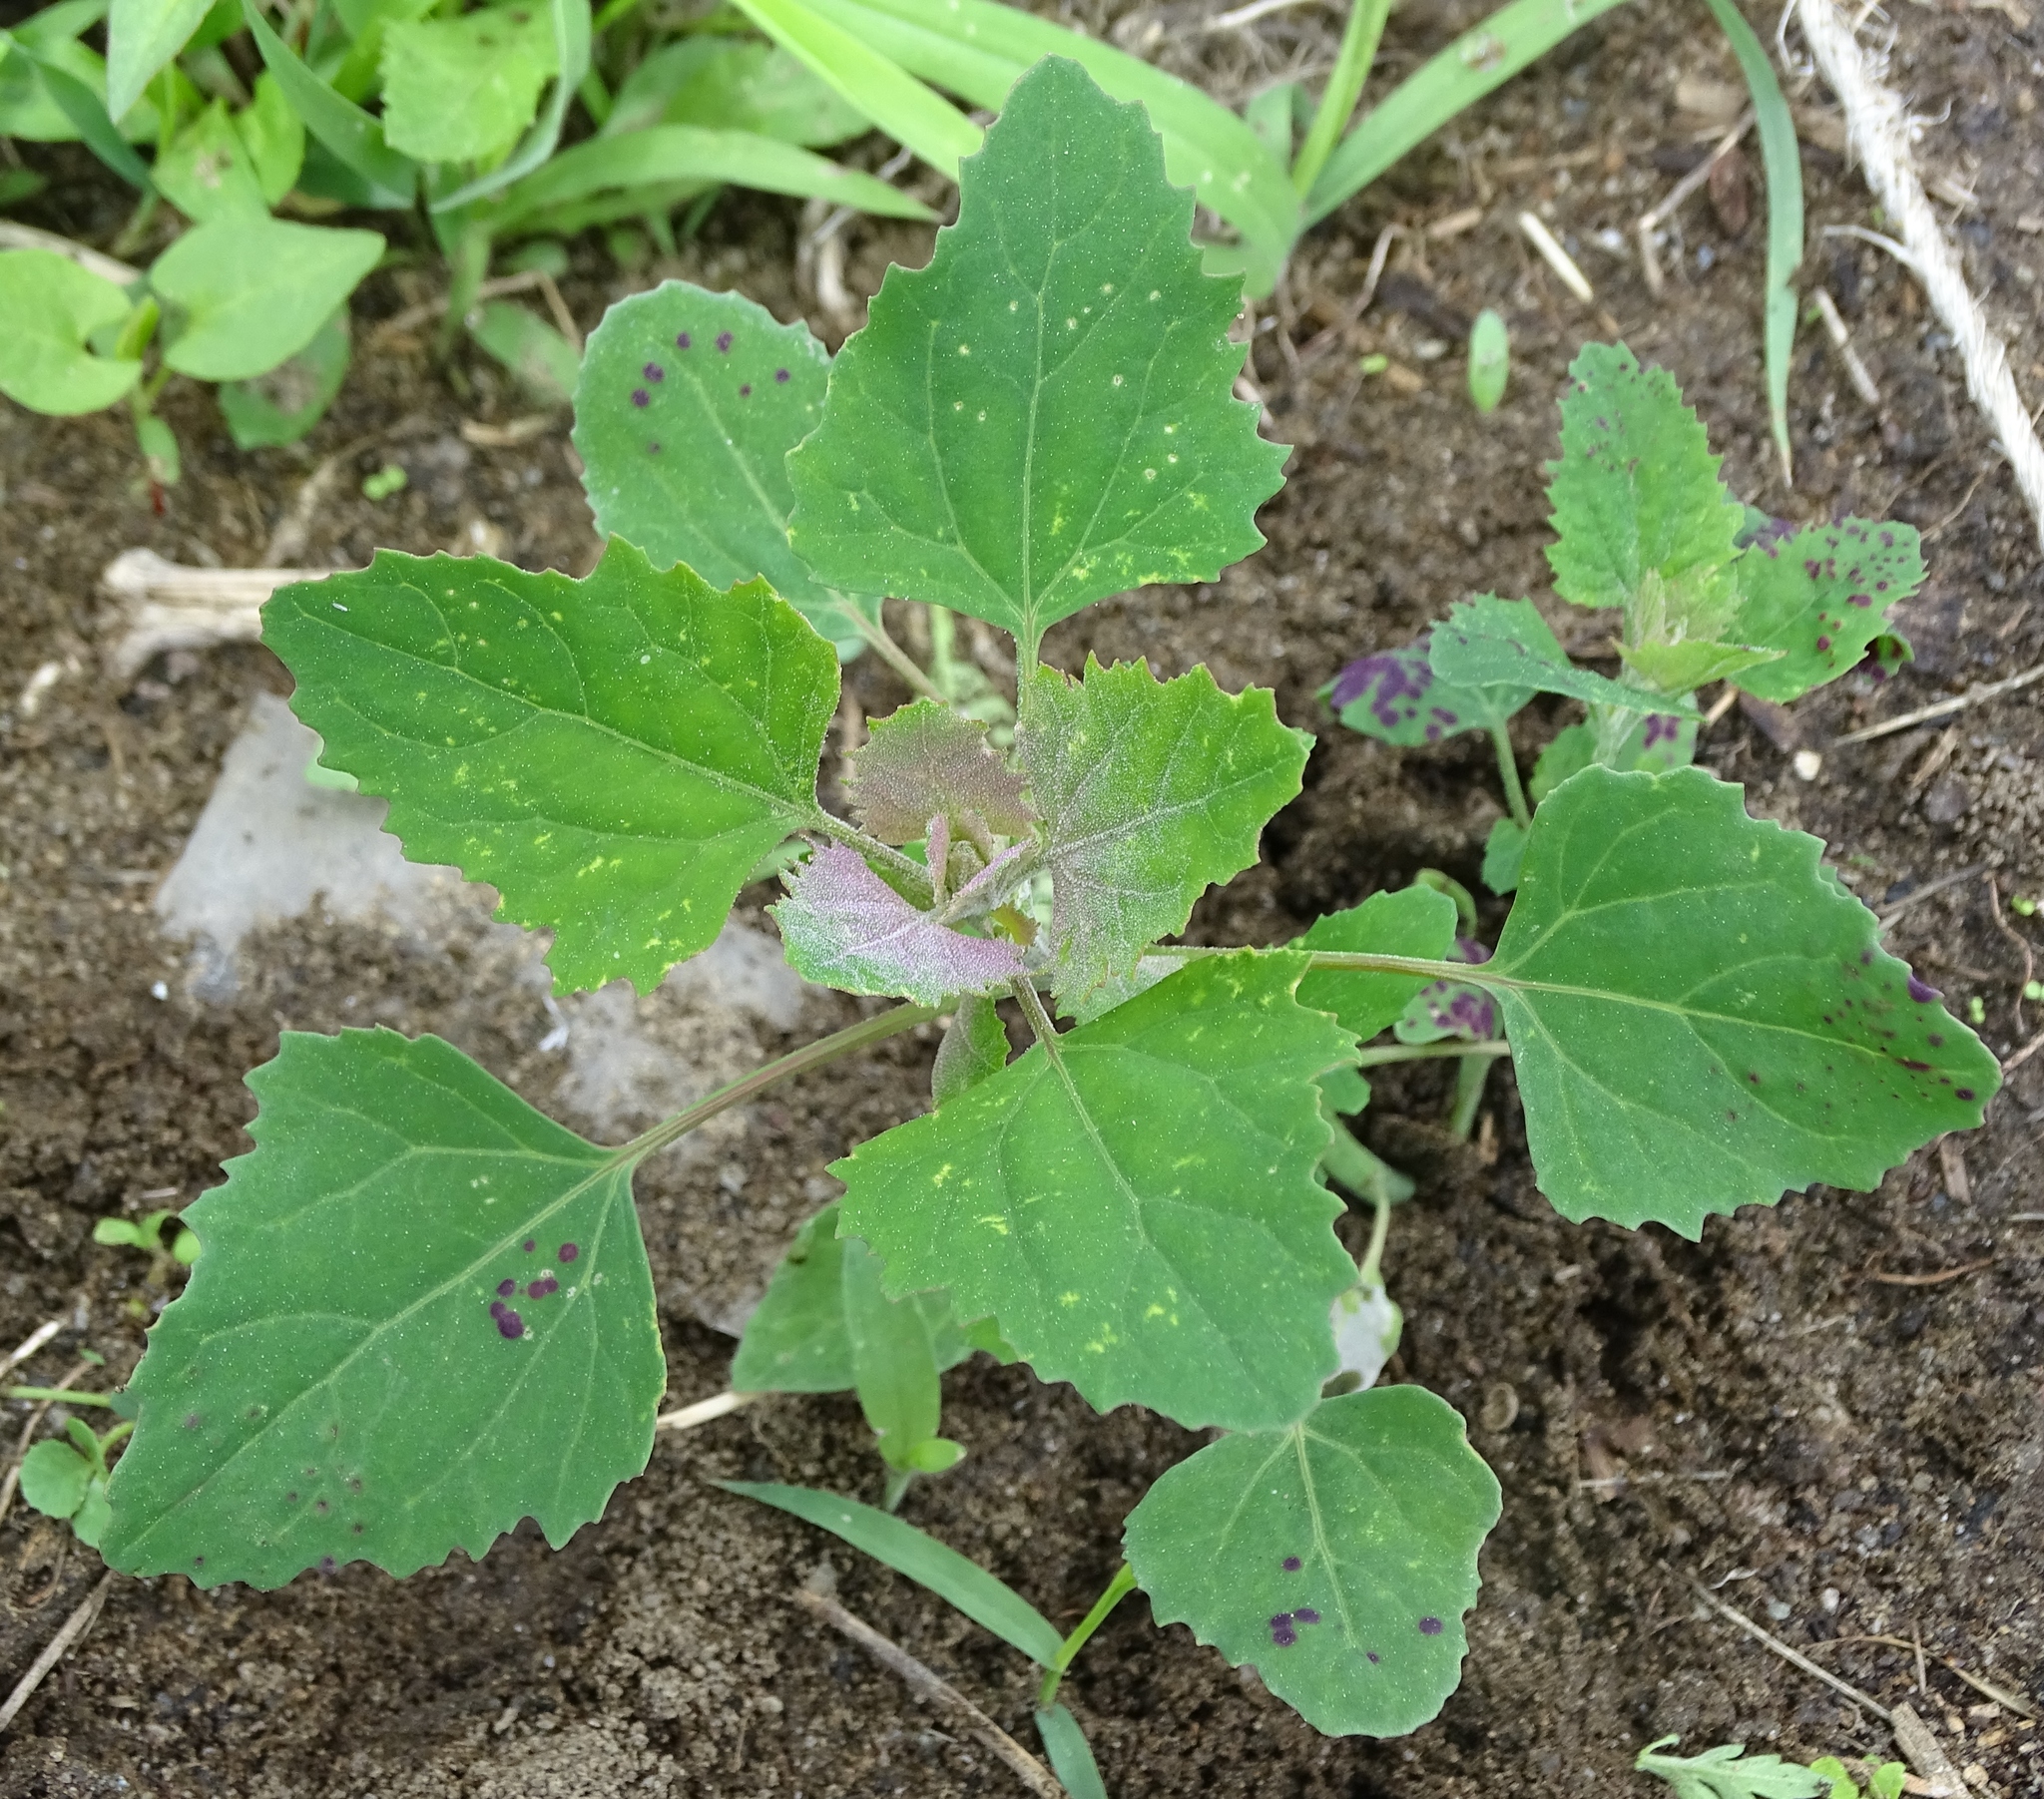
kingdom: Plantae
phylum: Tracheophyta
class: Magnoliopsida
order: Caryophyllales
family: Amaranthaceae
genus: Chenopodium
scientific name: Chenopodium album
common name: Fat-hen
